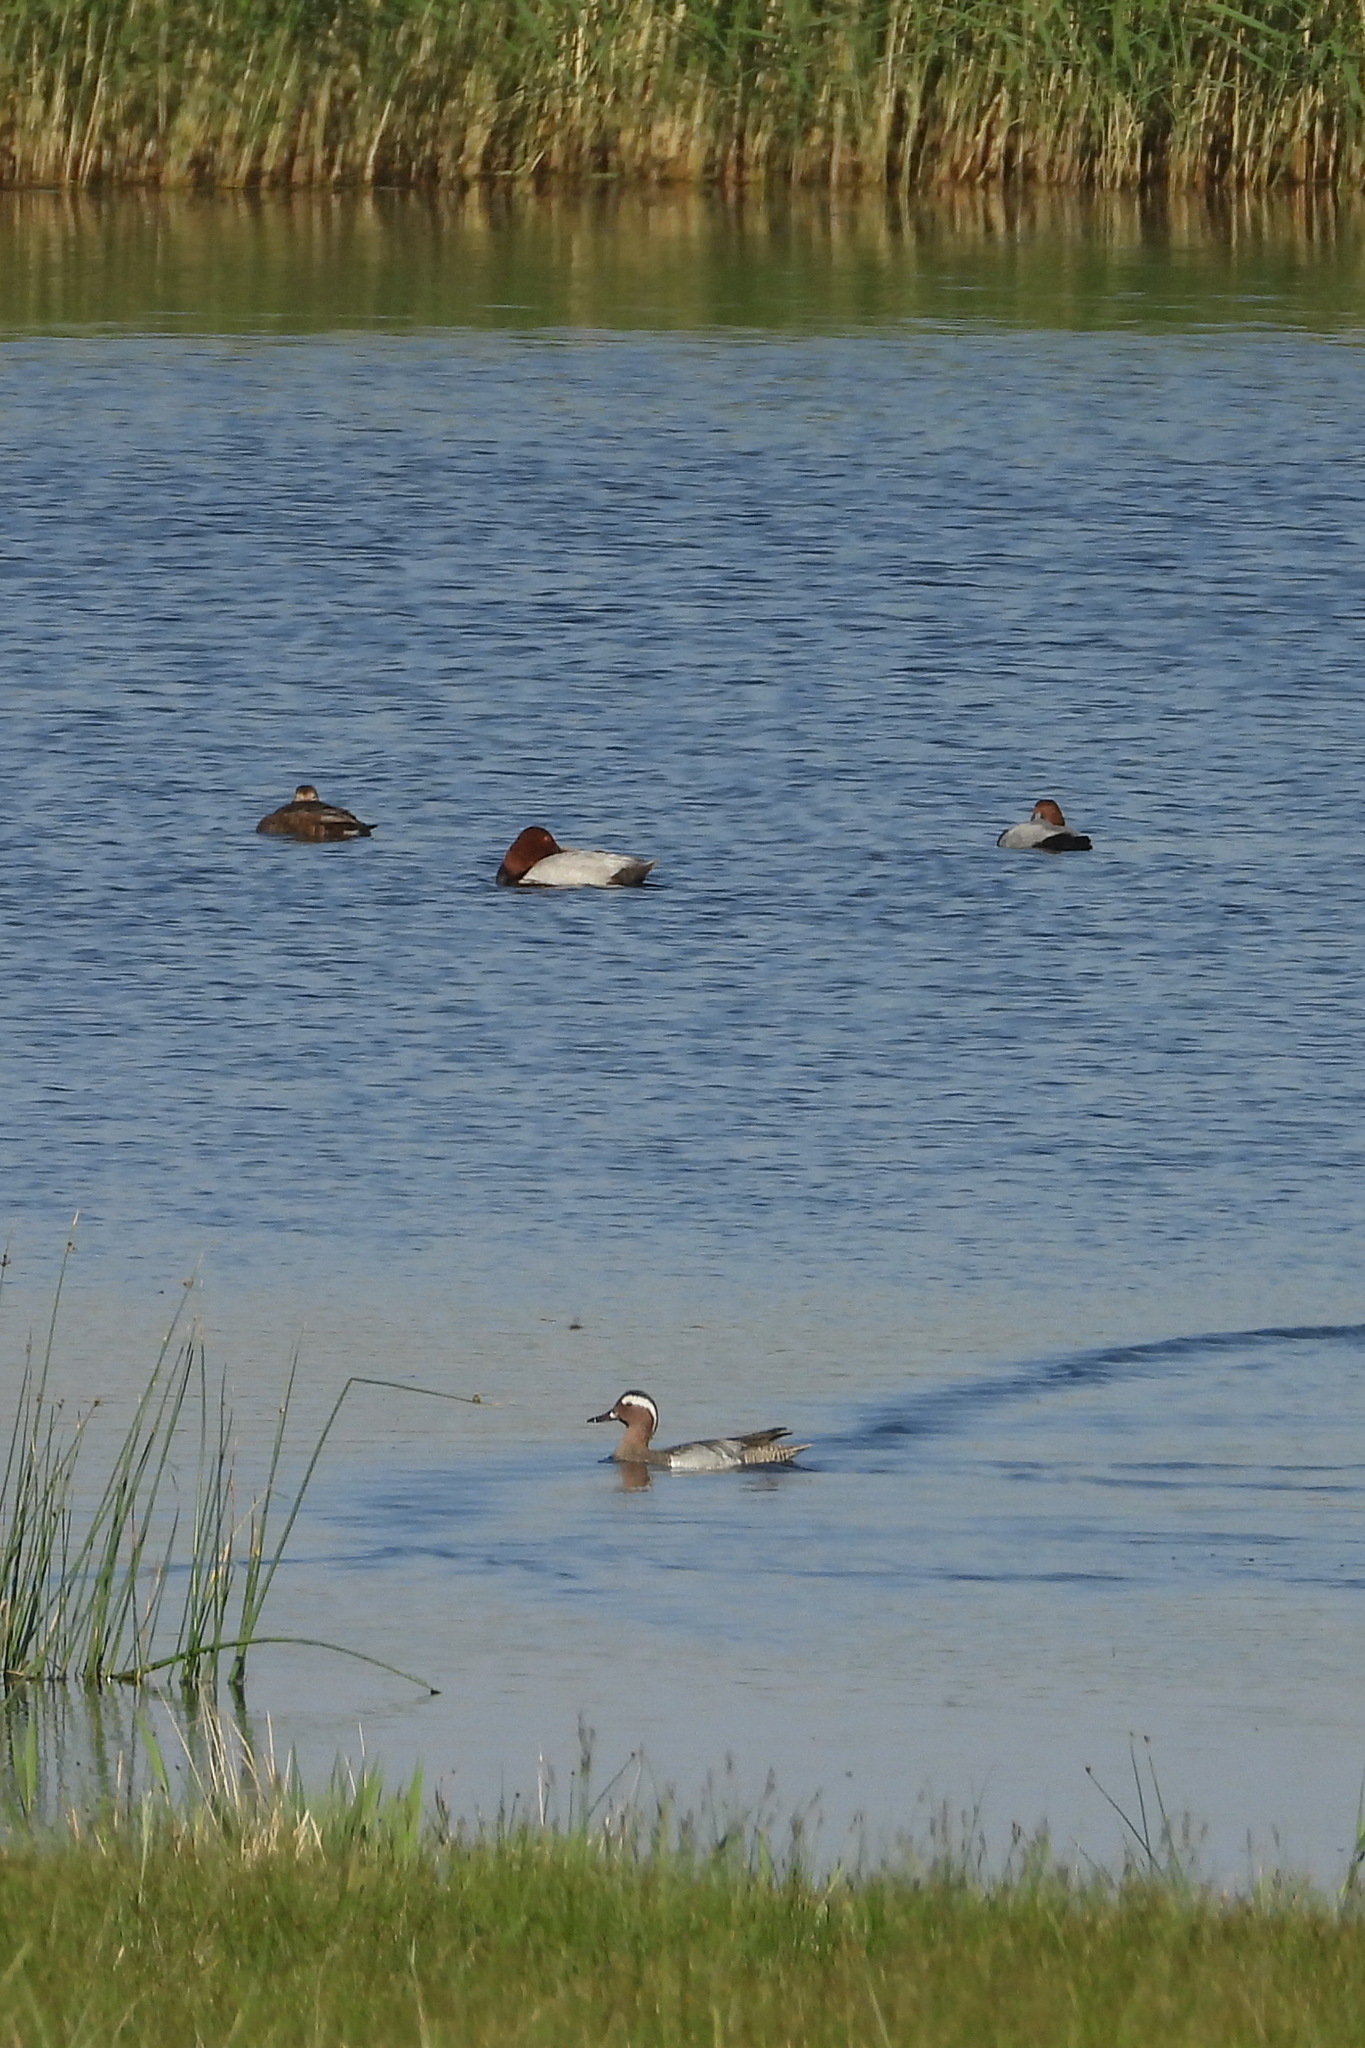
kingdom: Animalia
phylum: Chordata
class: Aves
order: Anseriformes
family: Anatidae
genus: Aythya
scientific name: Aythya ferina
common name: Common pochard
